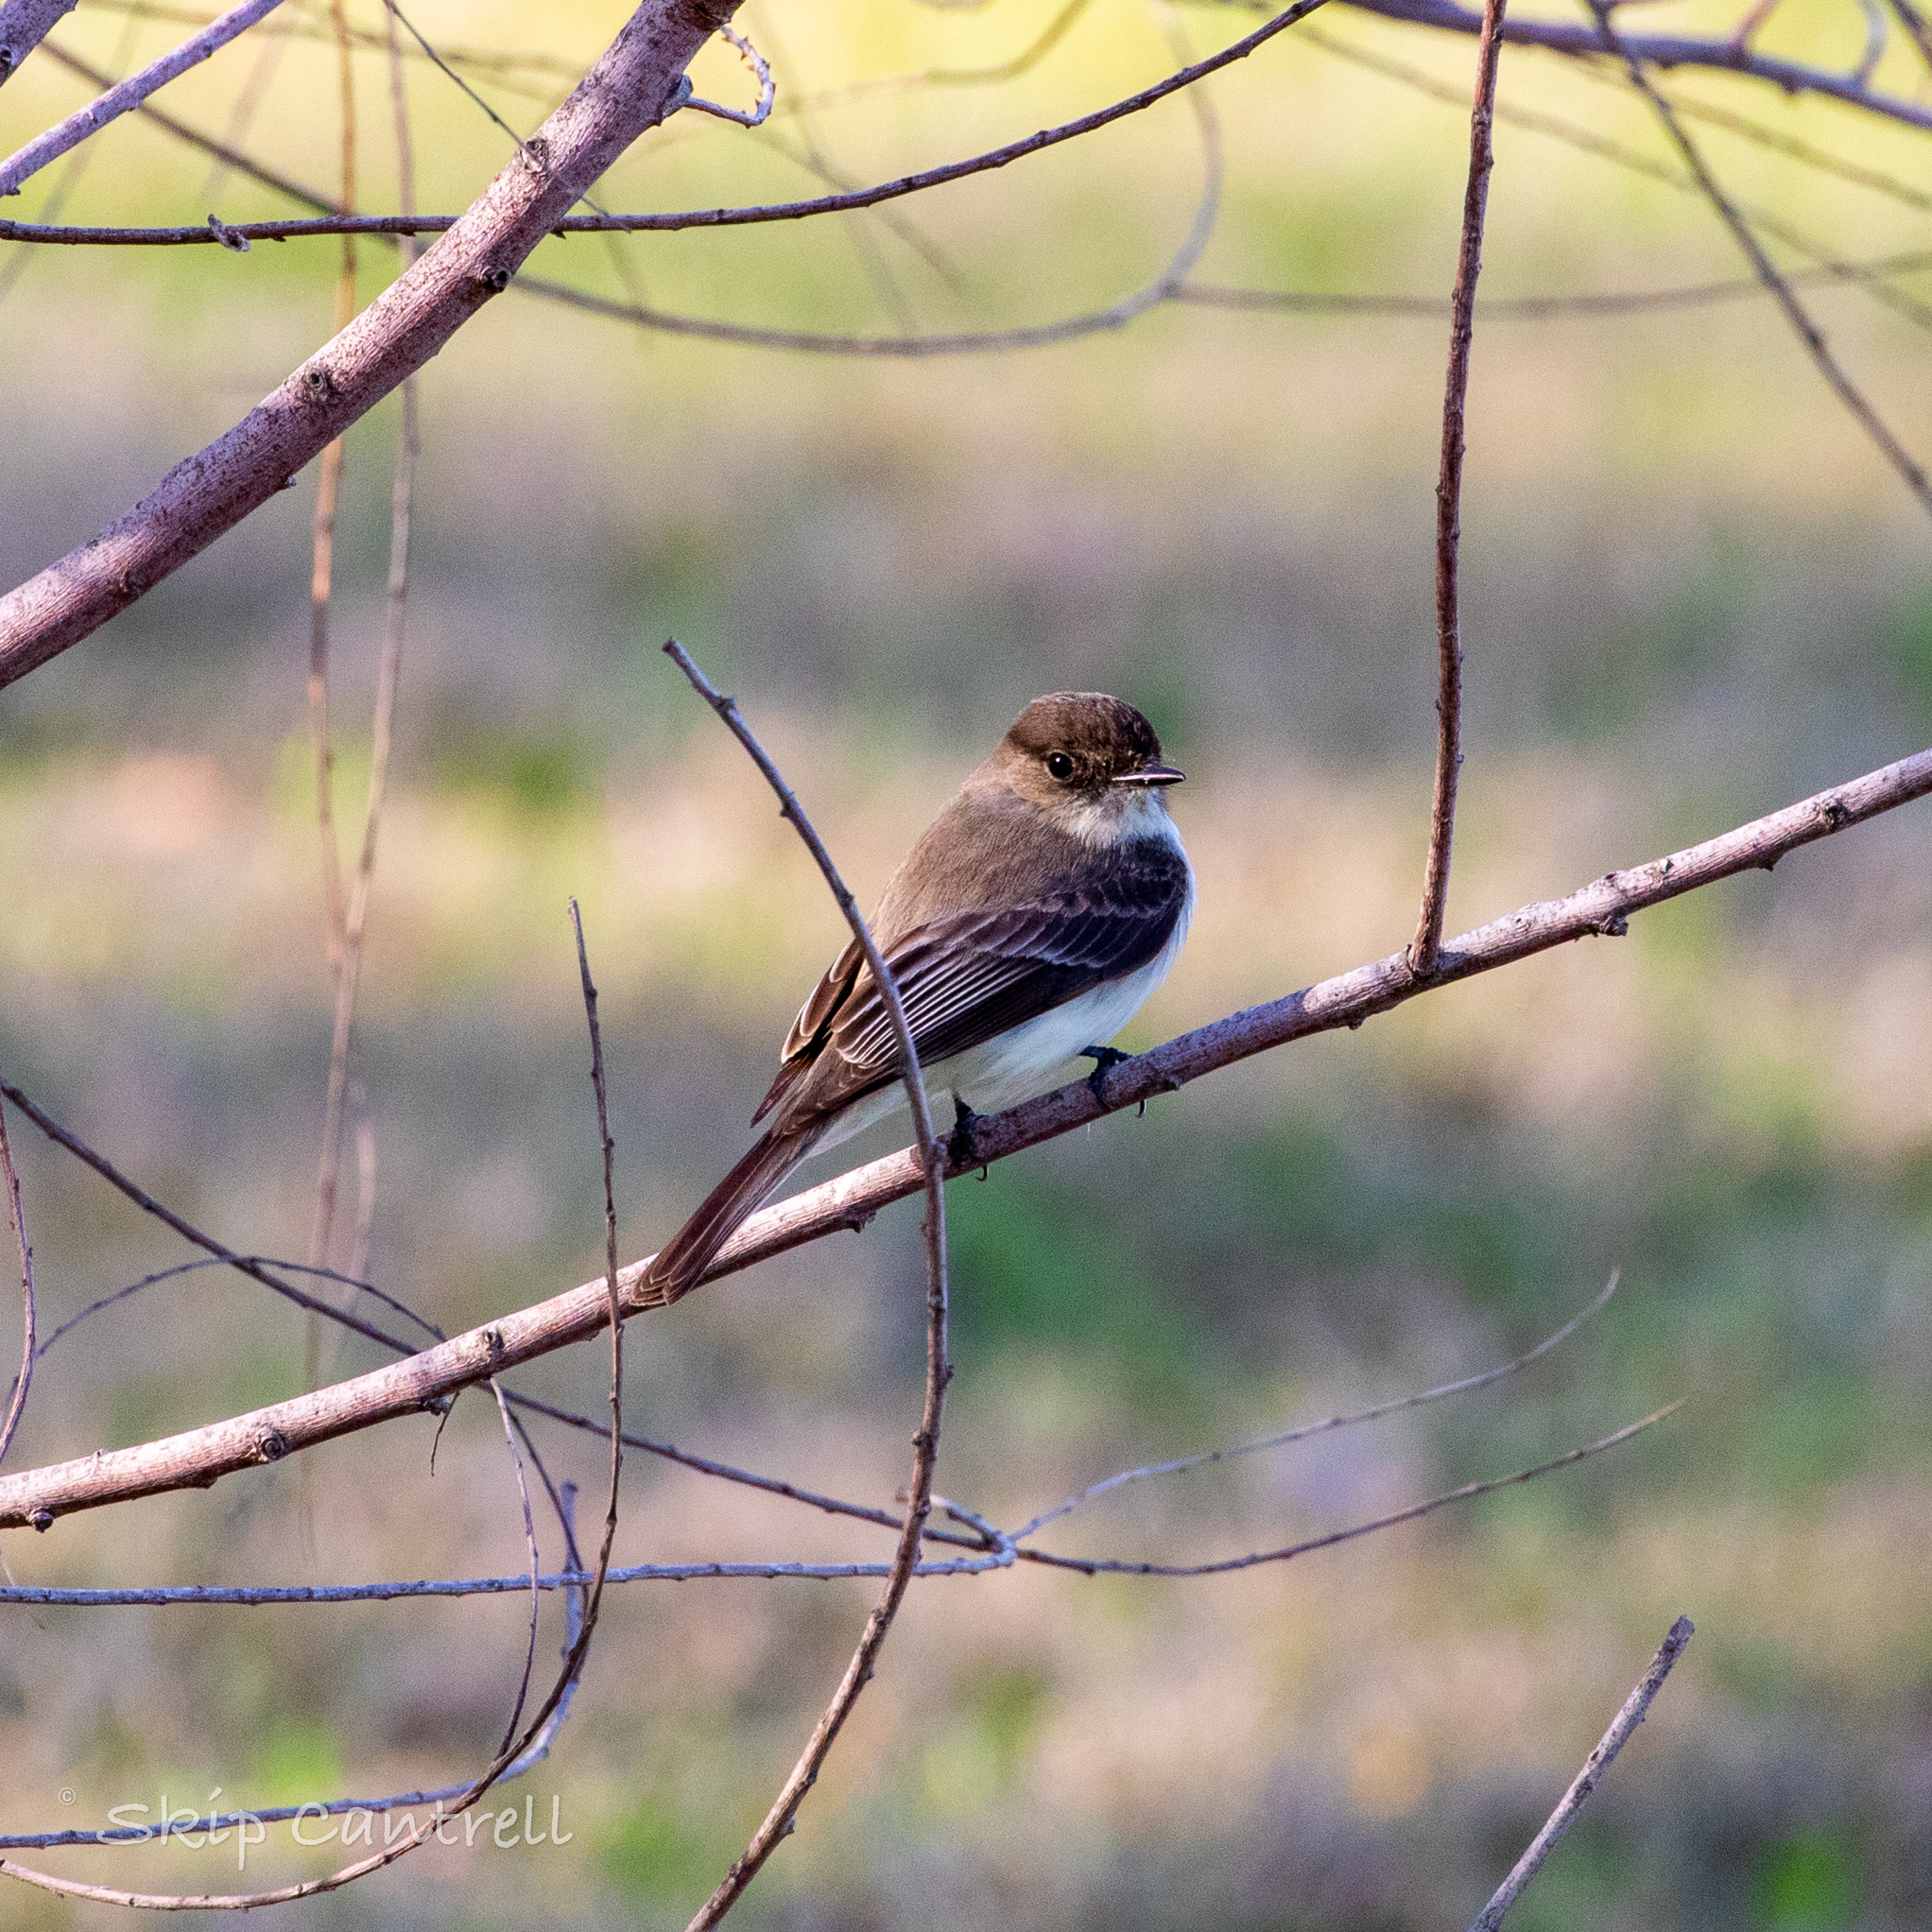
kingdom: Animalia
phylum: Chordata
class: Aves
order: Passeriformes
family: Tyrannidae
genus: Sayornis
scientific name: Sayornis phoebe
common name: Eastern phoebe
